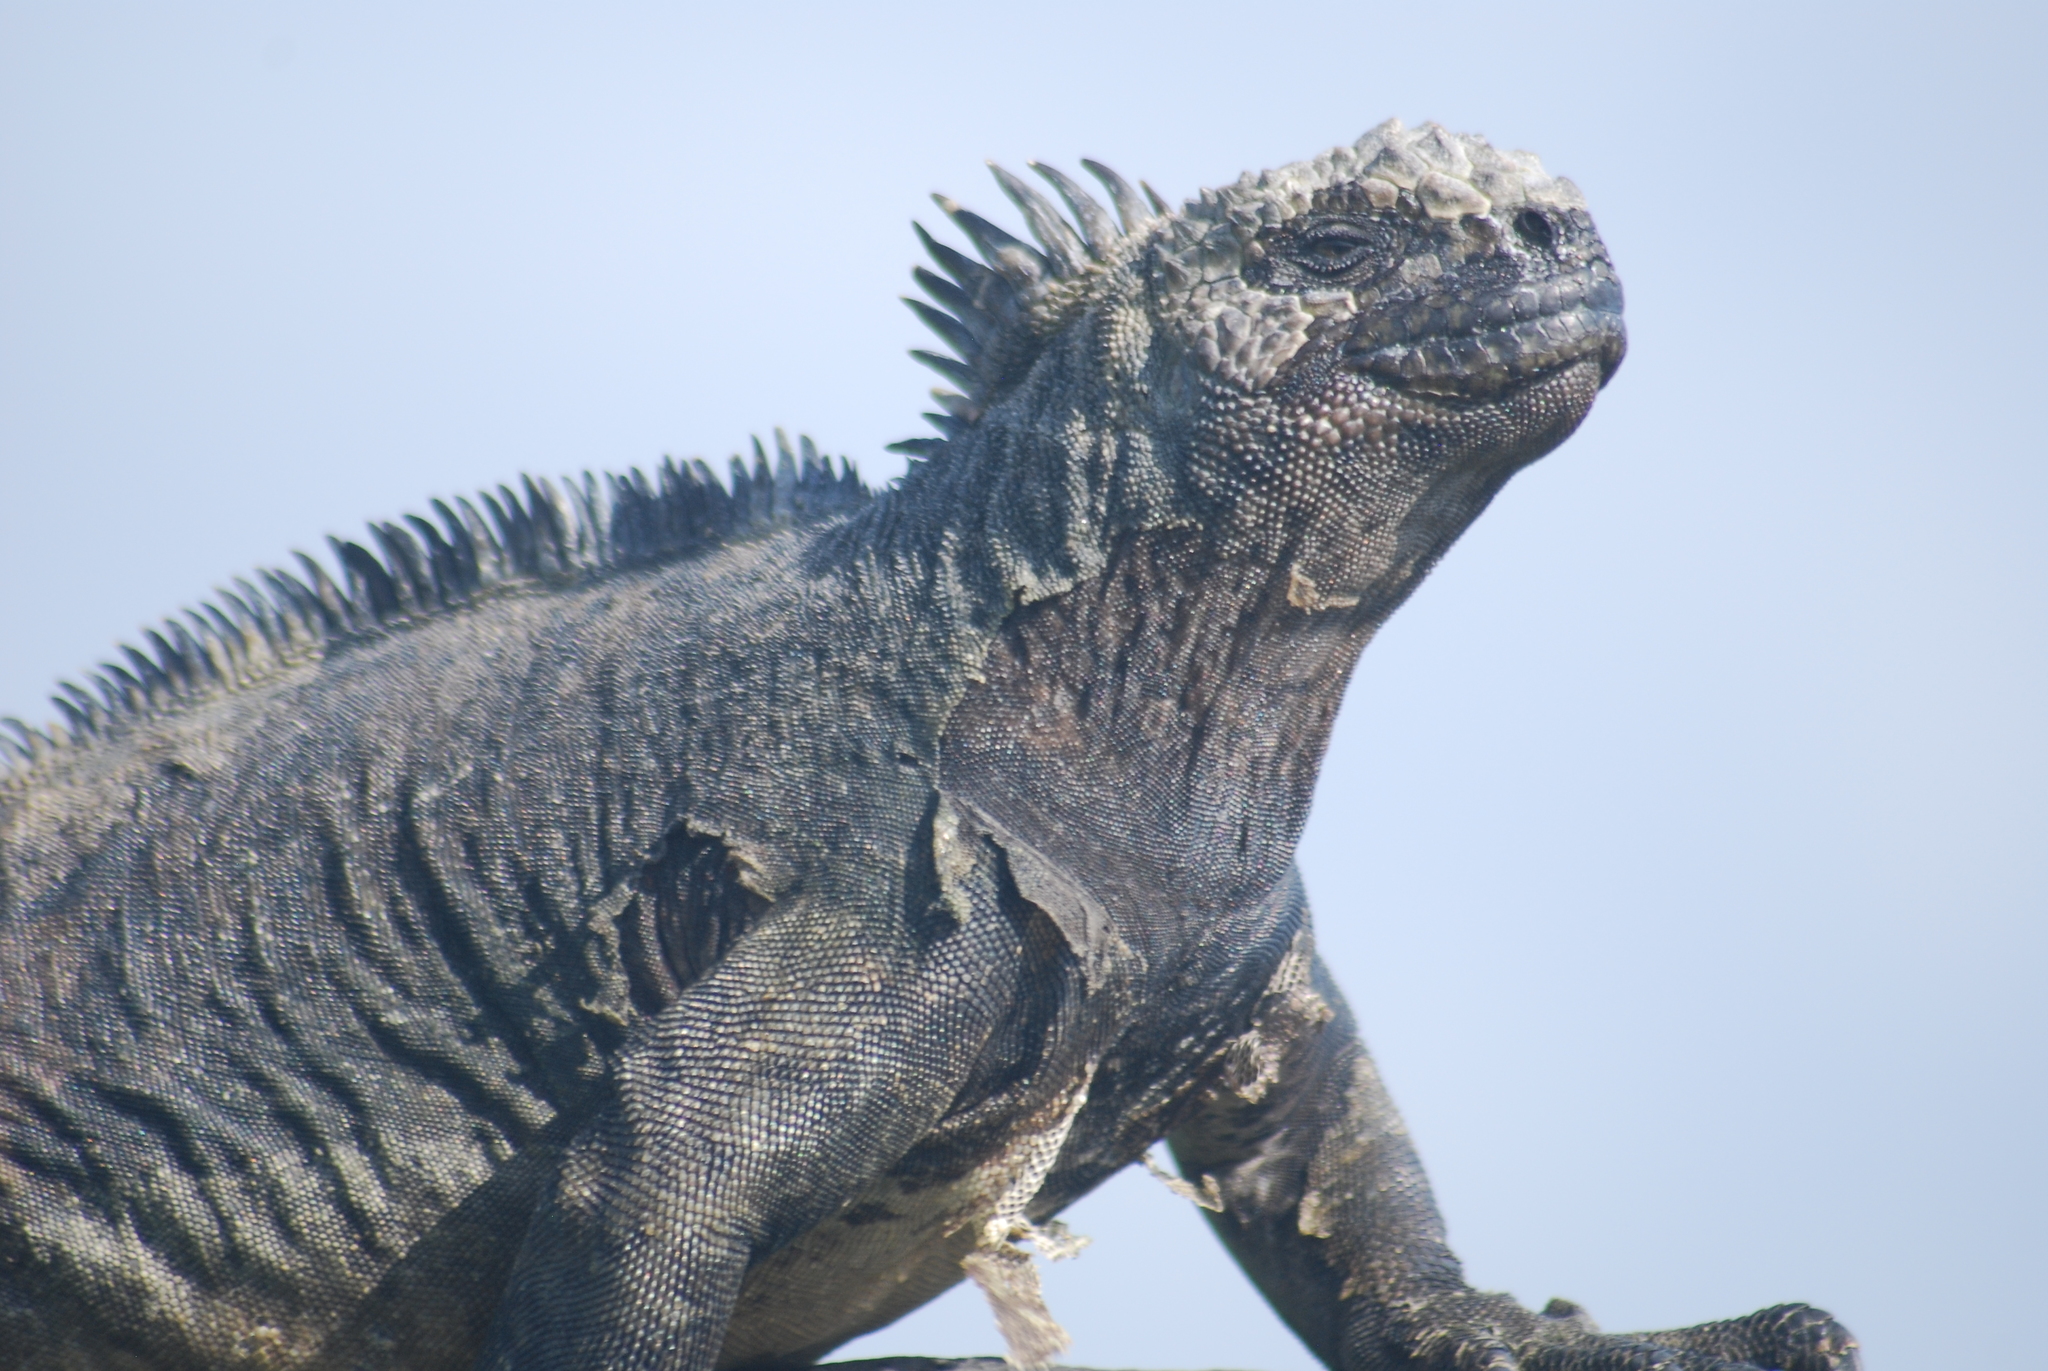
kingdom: Animalia
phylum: Chordata
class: Squamata
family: Iguanidae
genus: Amblyrhynchus
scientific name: Amblyrhynchus cristatus
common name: Marine iguana
